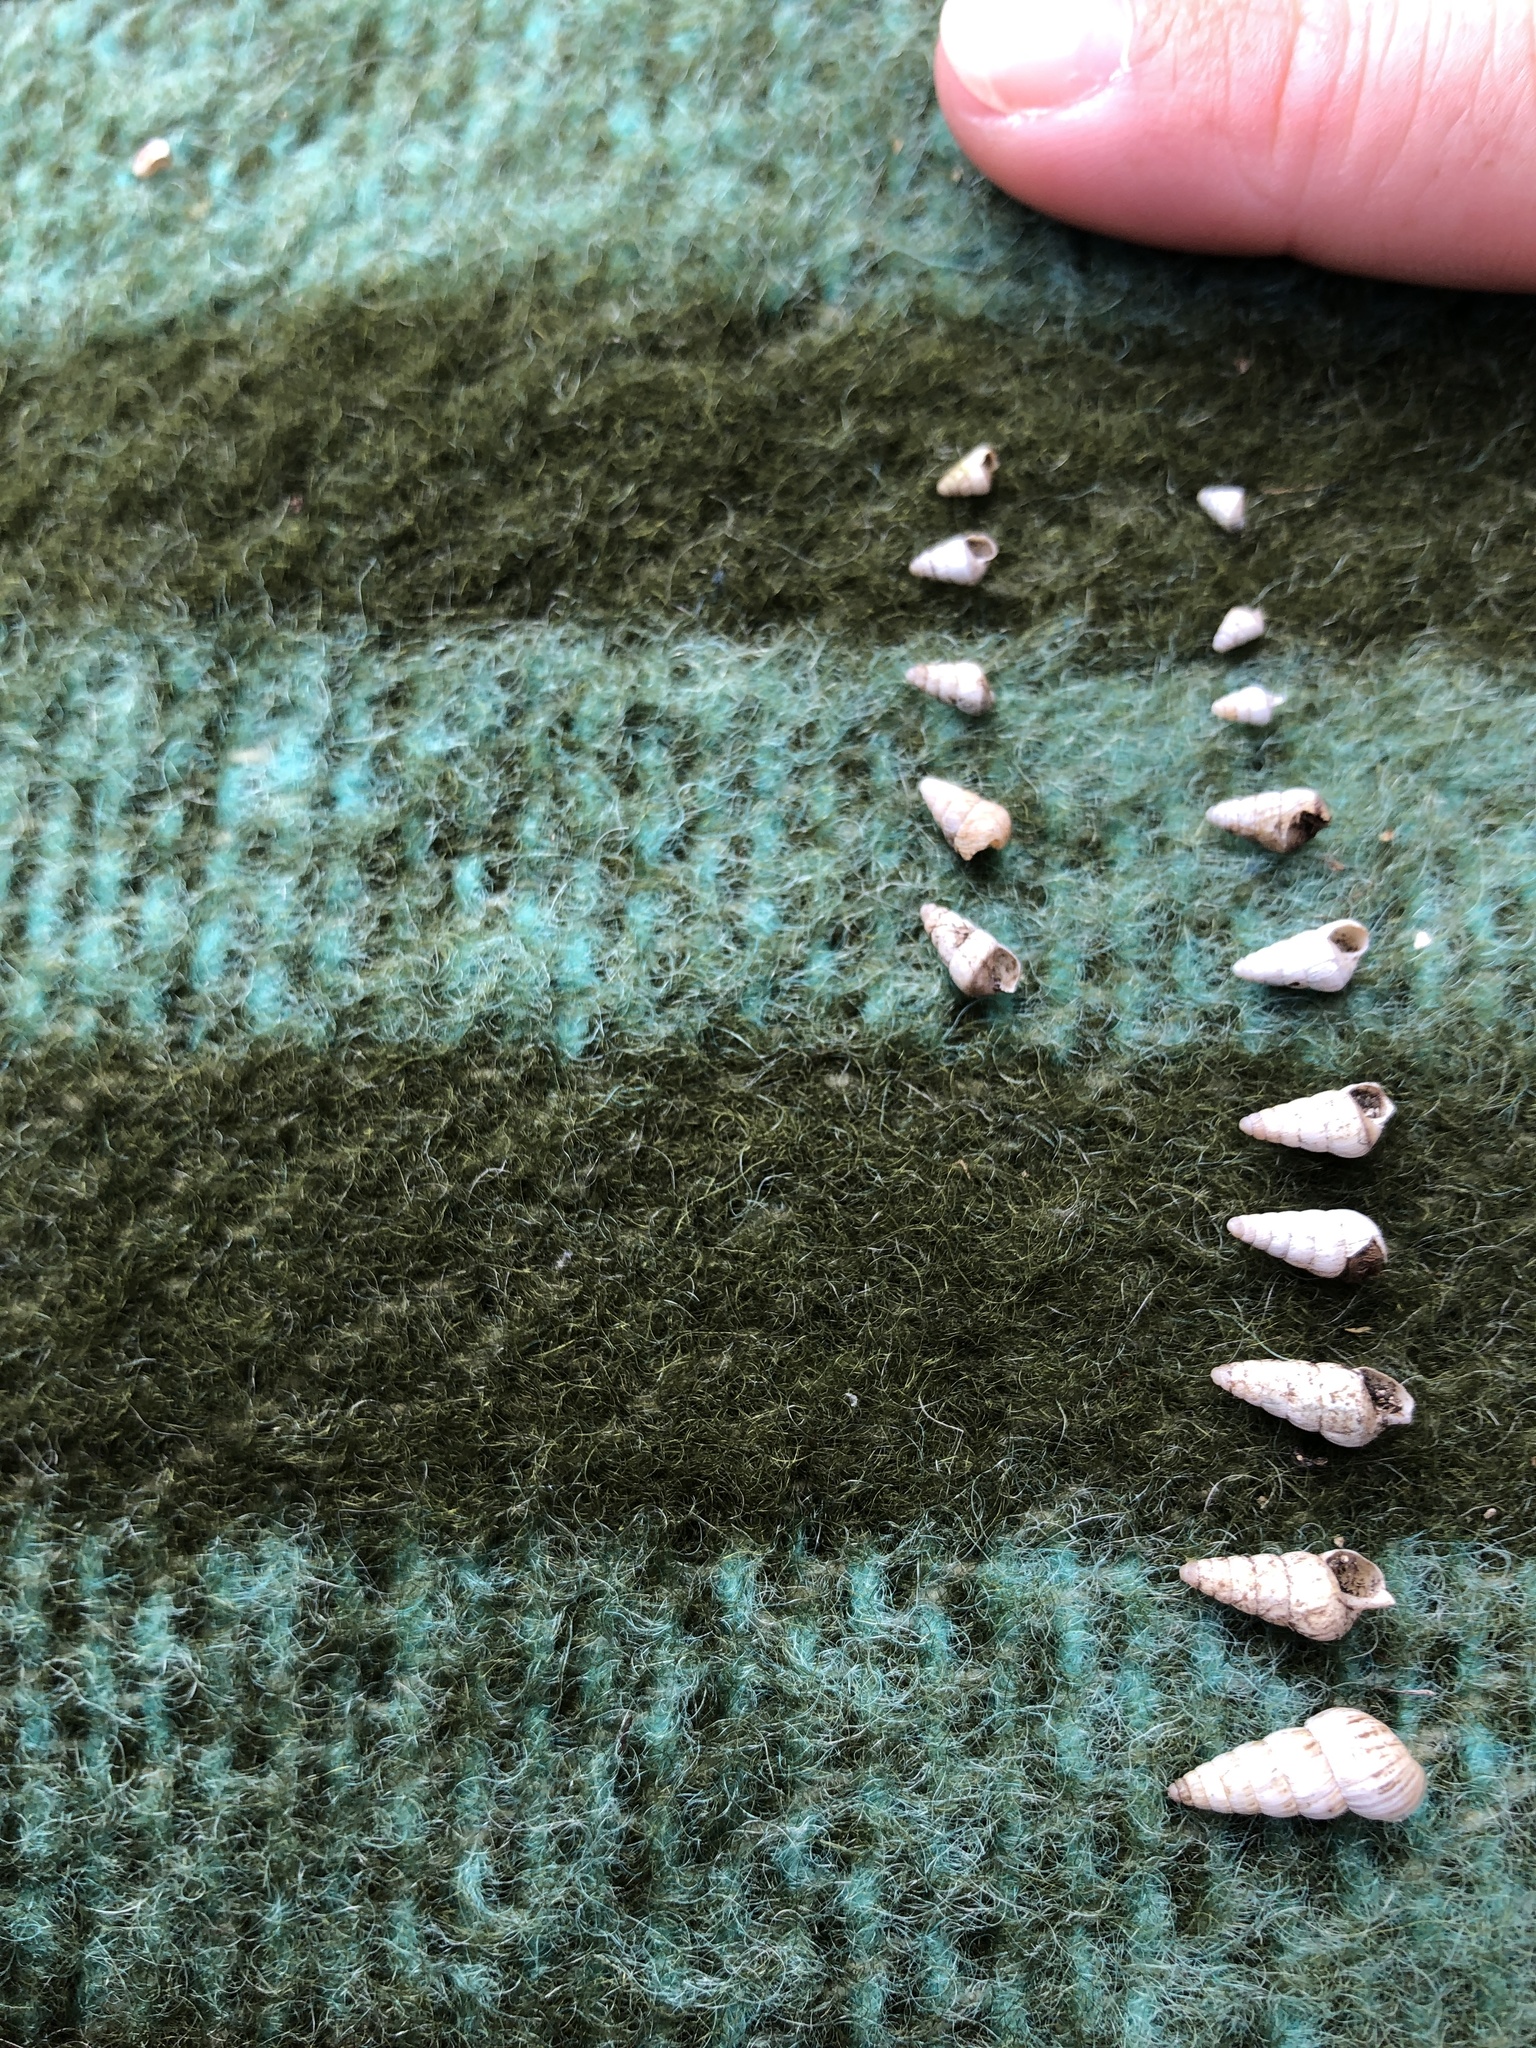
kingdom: Animalia
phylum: Mollusca
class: Gastropoda
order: Stylommatophora
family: Geomitridae
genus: Cochlicella
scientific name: Cochlicella acuta
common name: Pointed snail
